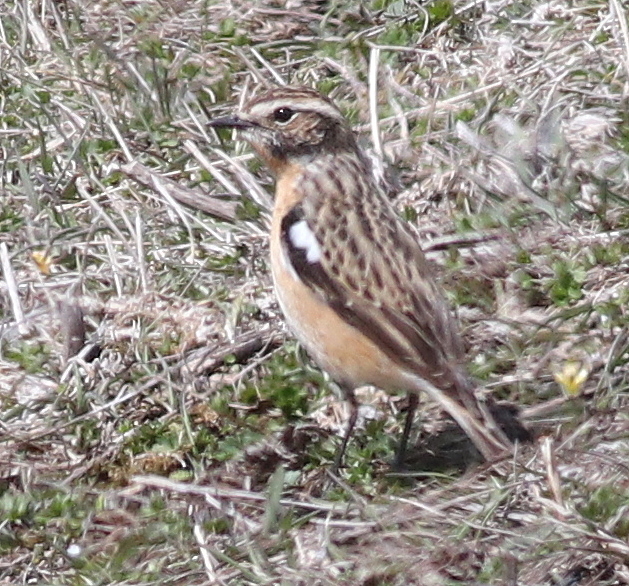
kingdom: Animalia
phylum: Chordata
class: Aves
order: Passeriformes
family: Muscicapidae
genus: Saxicola
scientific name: Saxicola rubetra
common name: Whinchat
